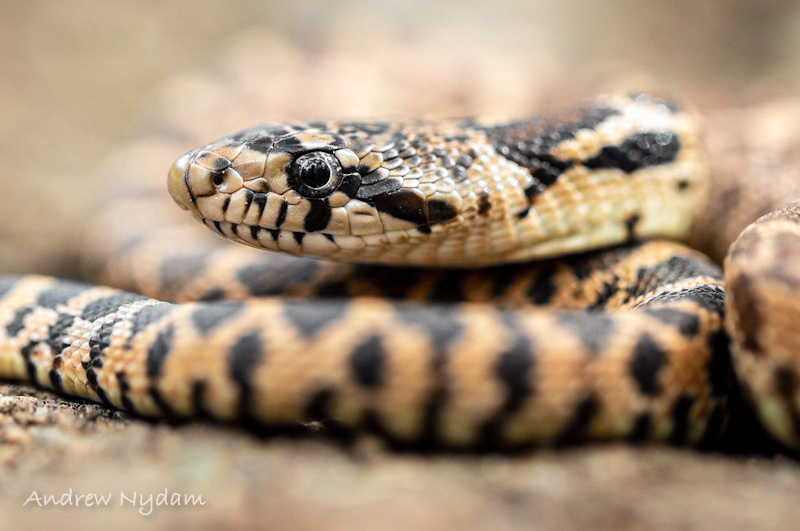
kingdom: Animalia
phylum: Chordata
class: Squamata
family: Colubridae
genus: Pituophis
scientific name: Pituophis catenifer
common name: Gopher snake
